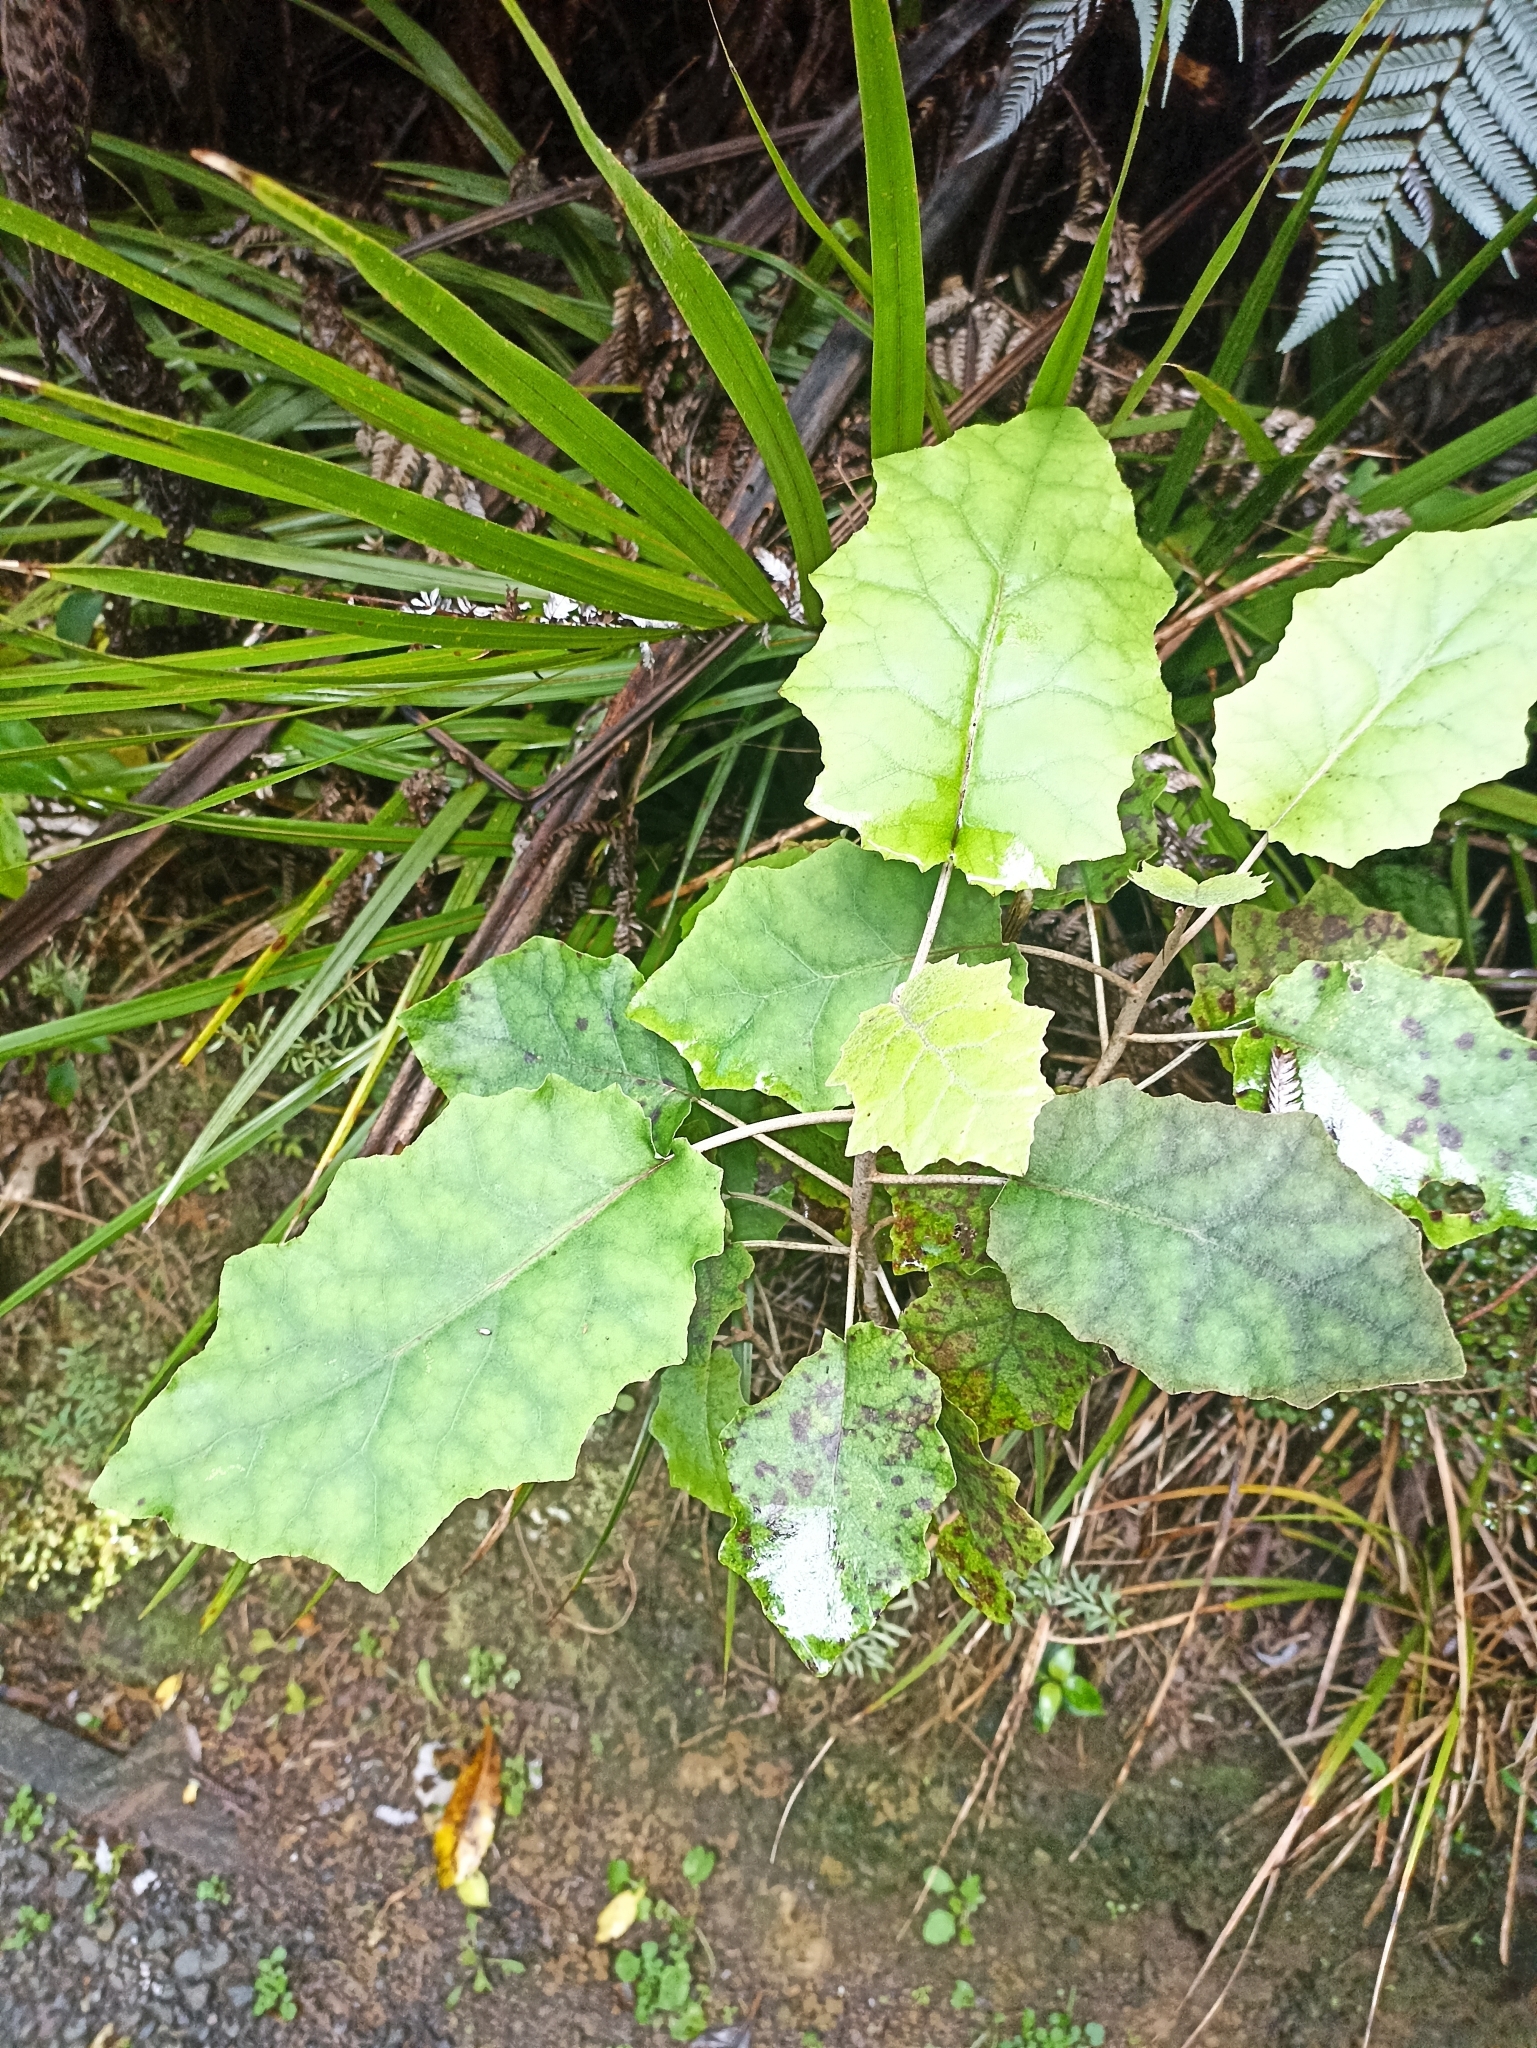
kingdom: Plantae
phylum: Tracheophyta
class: Magnoliopsida
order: Asterales
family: Asteraceae
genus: Brachyglottis
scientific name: Brachyglottis repanda
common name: Hedge ragwort
